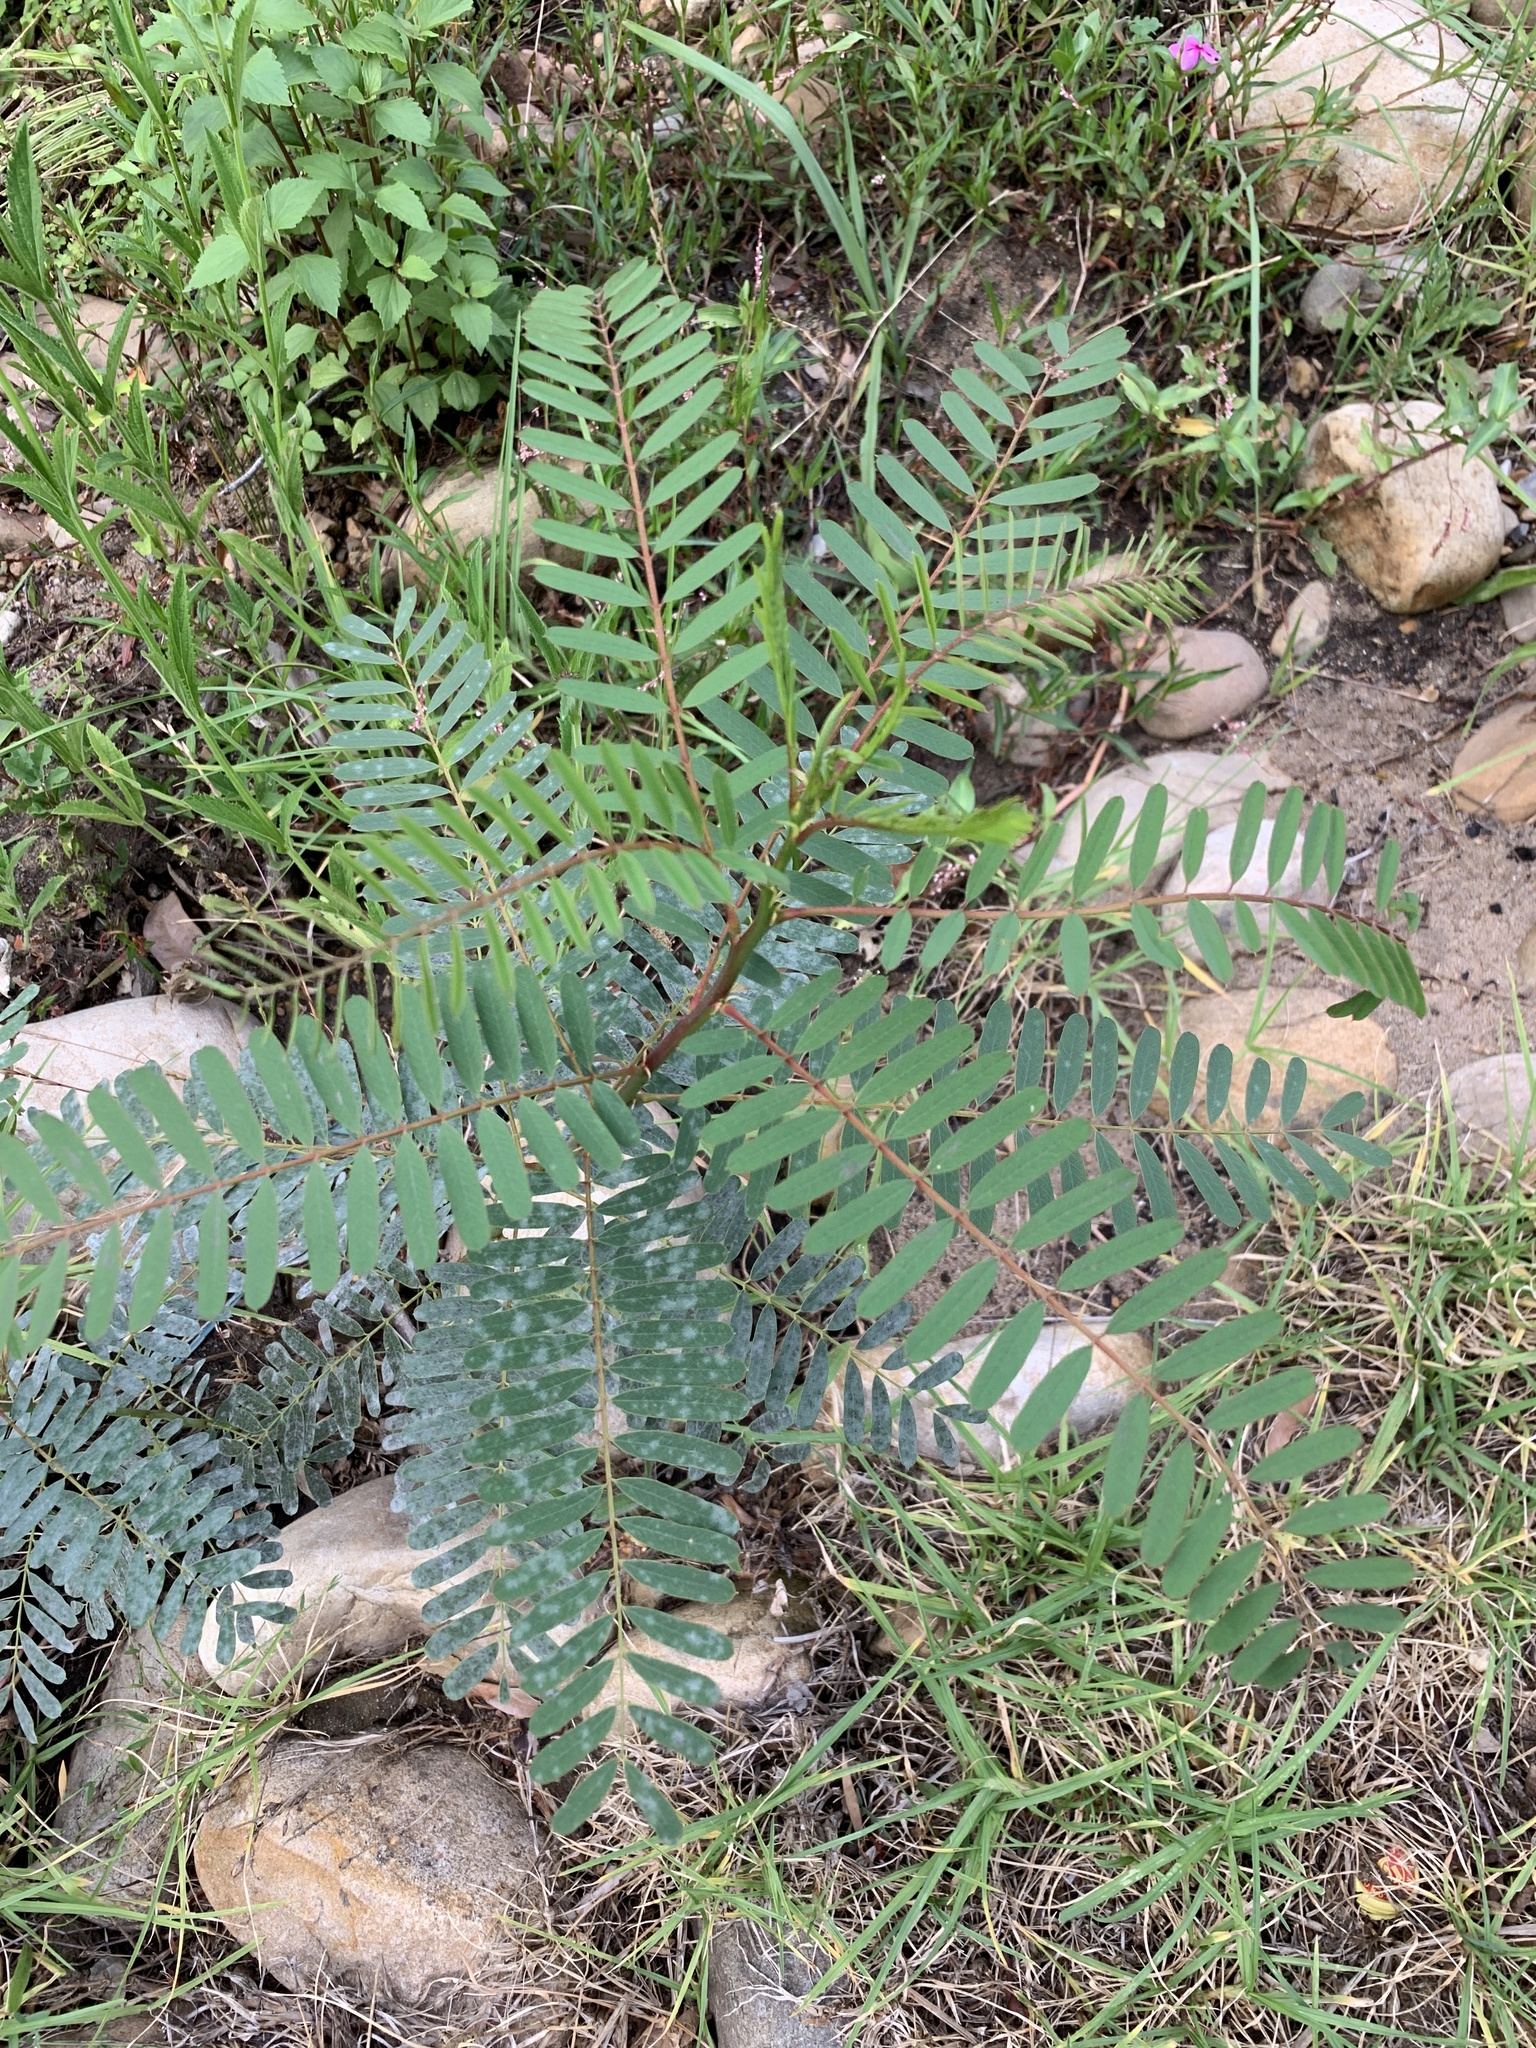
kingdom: Plantae
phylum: Tracheophyta
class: Magnoliopsida
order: Fabales
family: Fabaceae
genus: Sesbania
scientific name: Sesbania punicea
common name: Rattlebox
